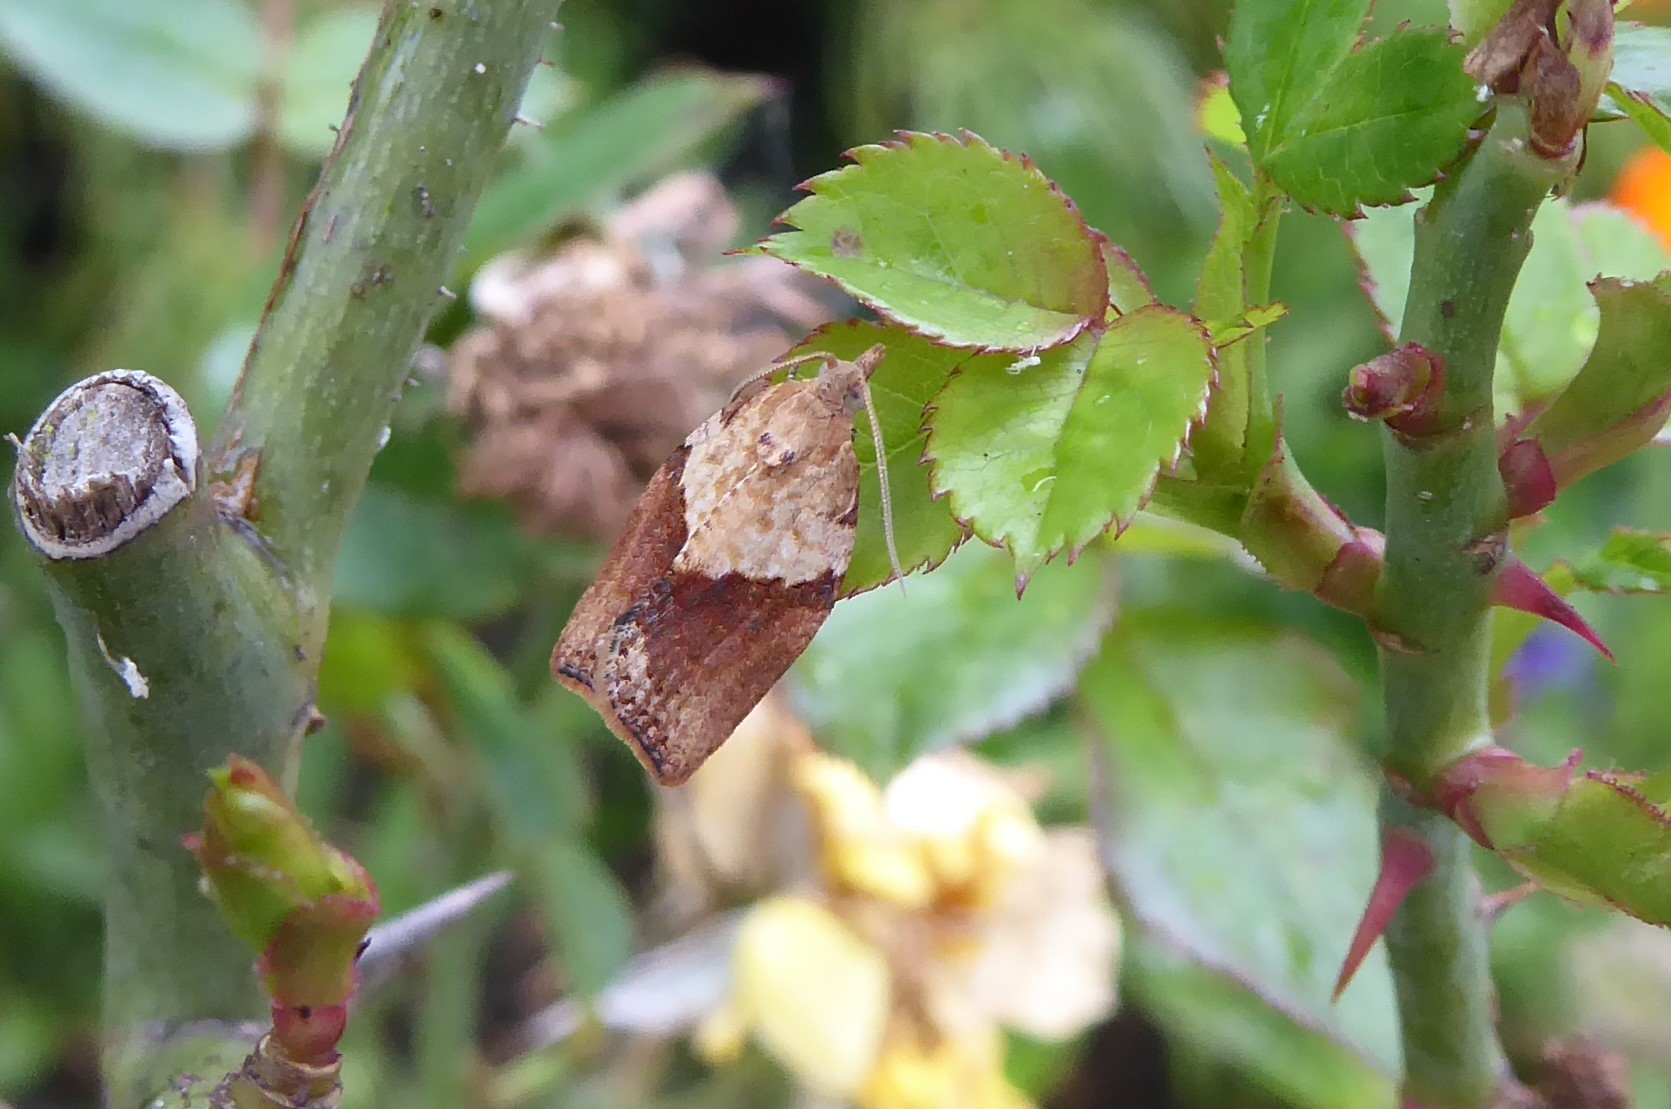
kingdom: Animalia
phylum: Arthropoda
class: Insecta
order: Lepidoptera
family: Tortricidae
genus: Epiphyas
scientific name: Epiphyas postvittana
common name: Light brown apple moth
